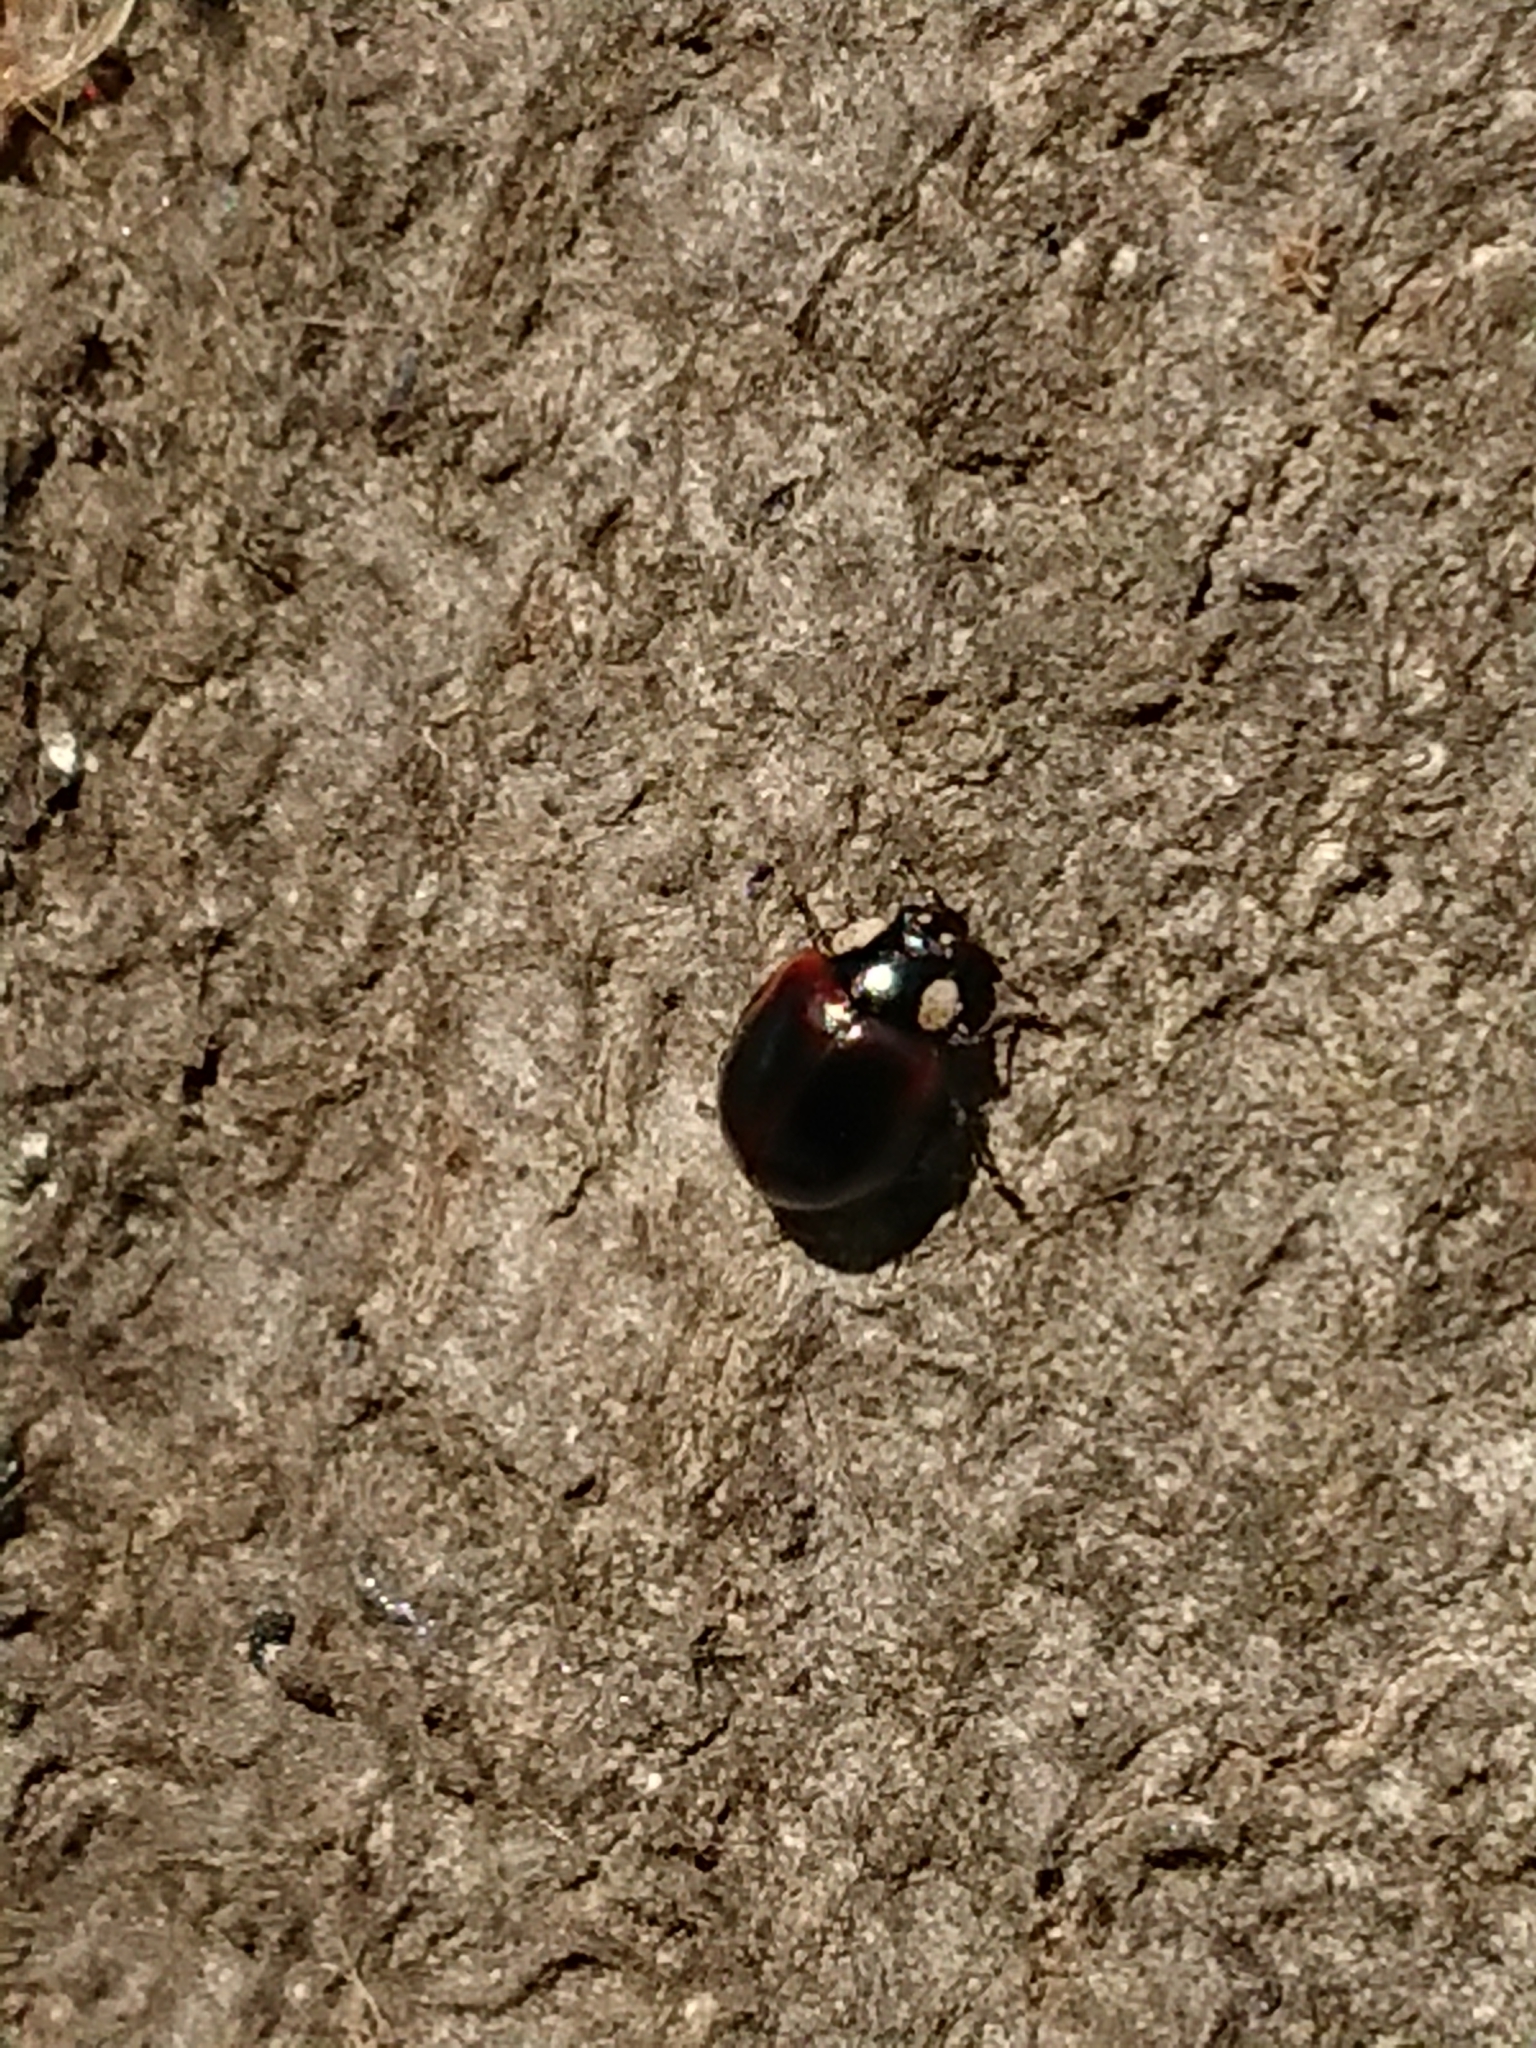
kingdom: Animalia
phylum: Arthropoda
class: Insecta
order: Coleoptera
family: Coccinellidae
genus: Harmonia
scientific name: Harmonia axyridis
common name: Harlequin ladybird
